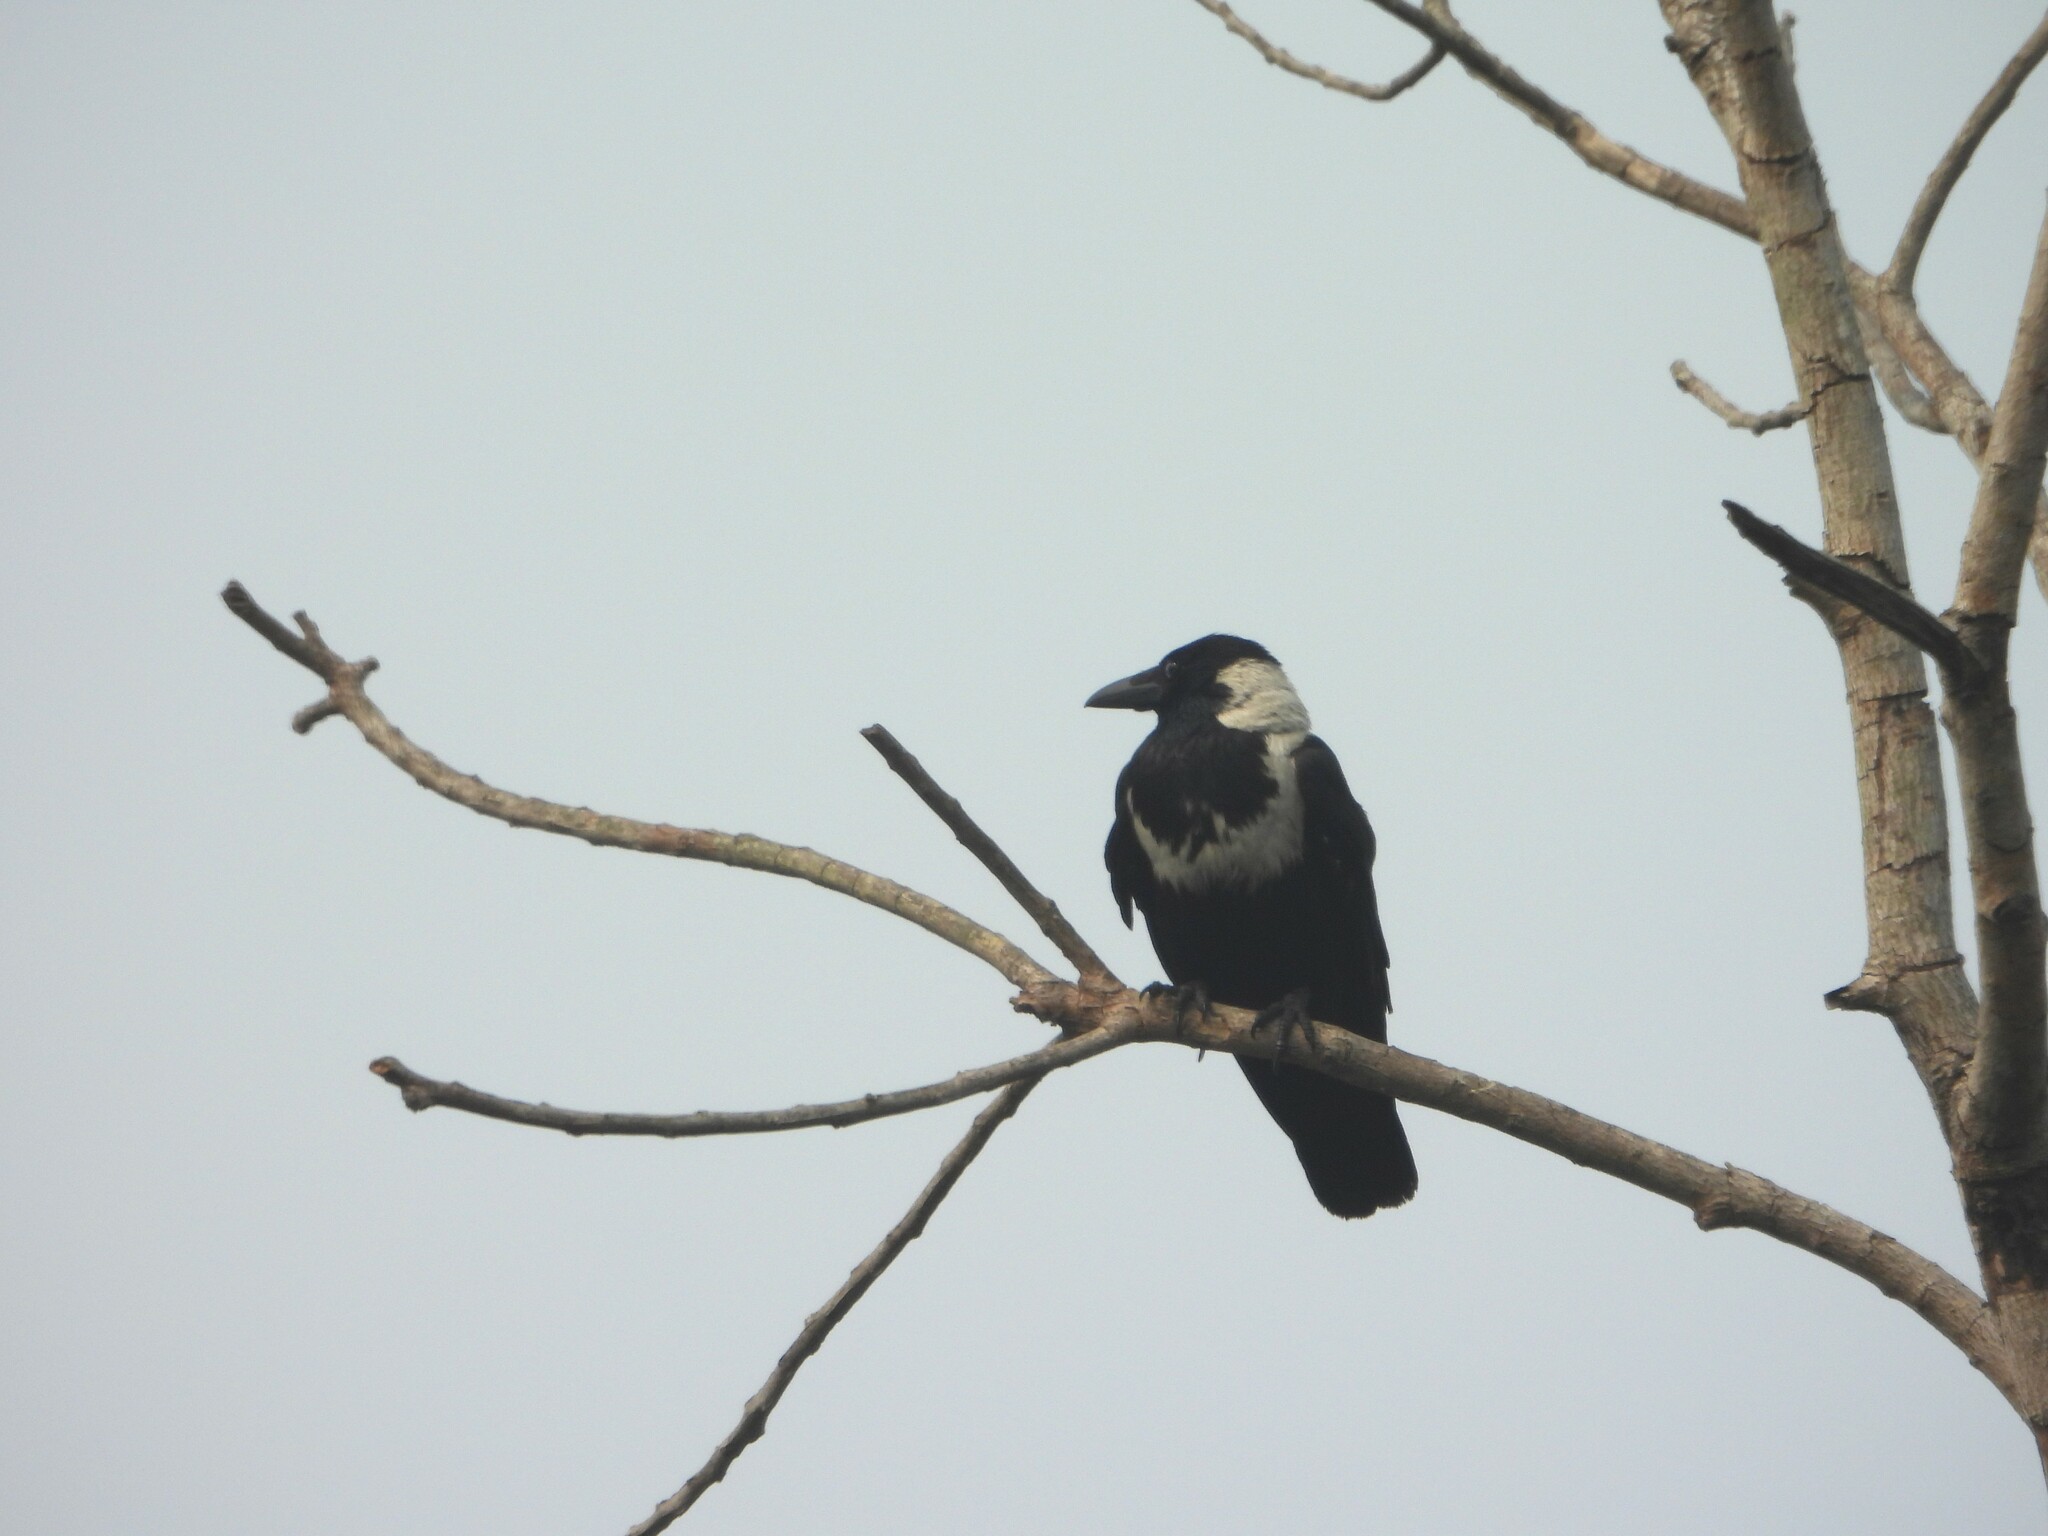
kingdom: Animalia
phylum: Chordata
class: Aves
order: Passeriformes
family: Corvidae
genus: Corvus
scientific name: Corvus pectoralis
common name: Collared crow
